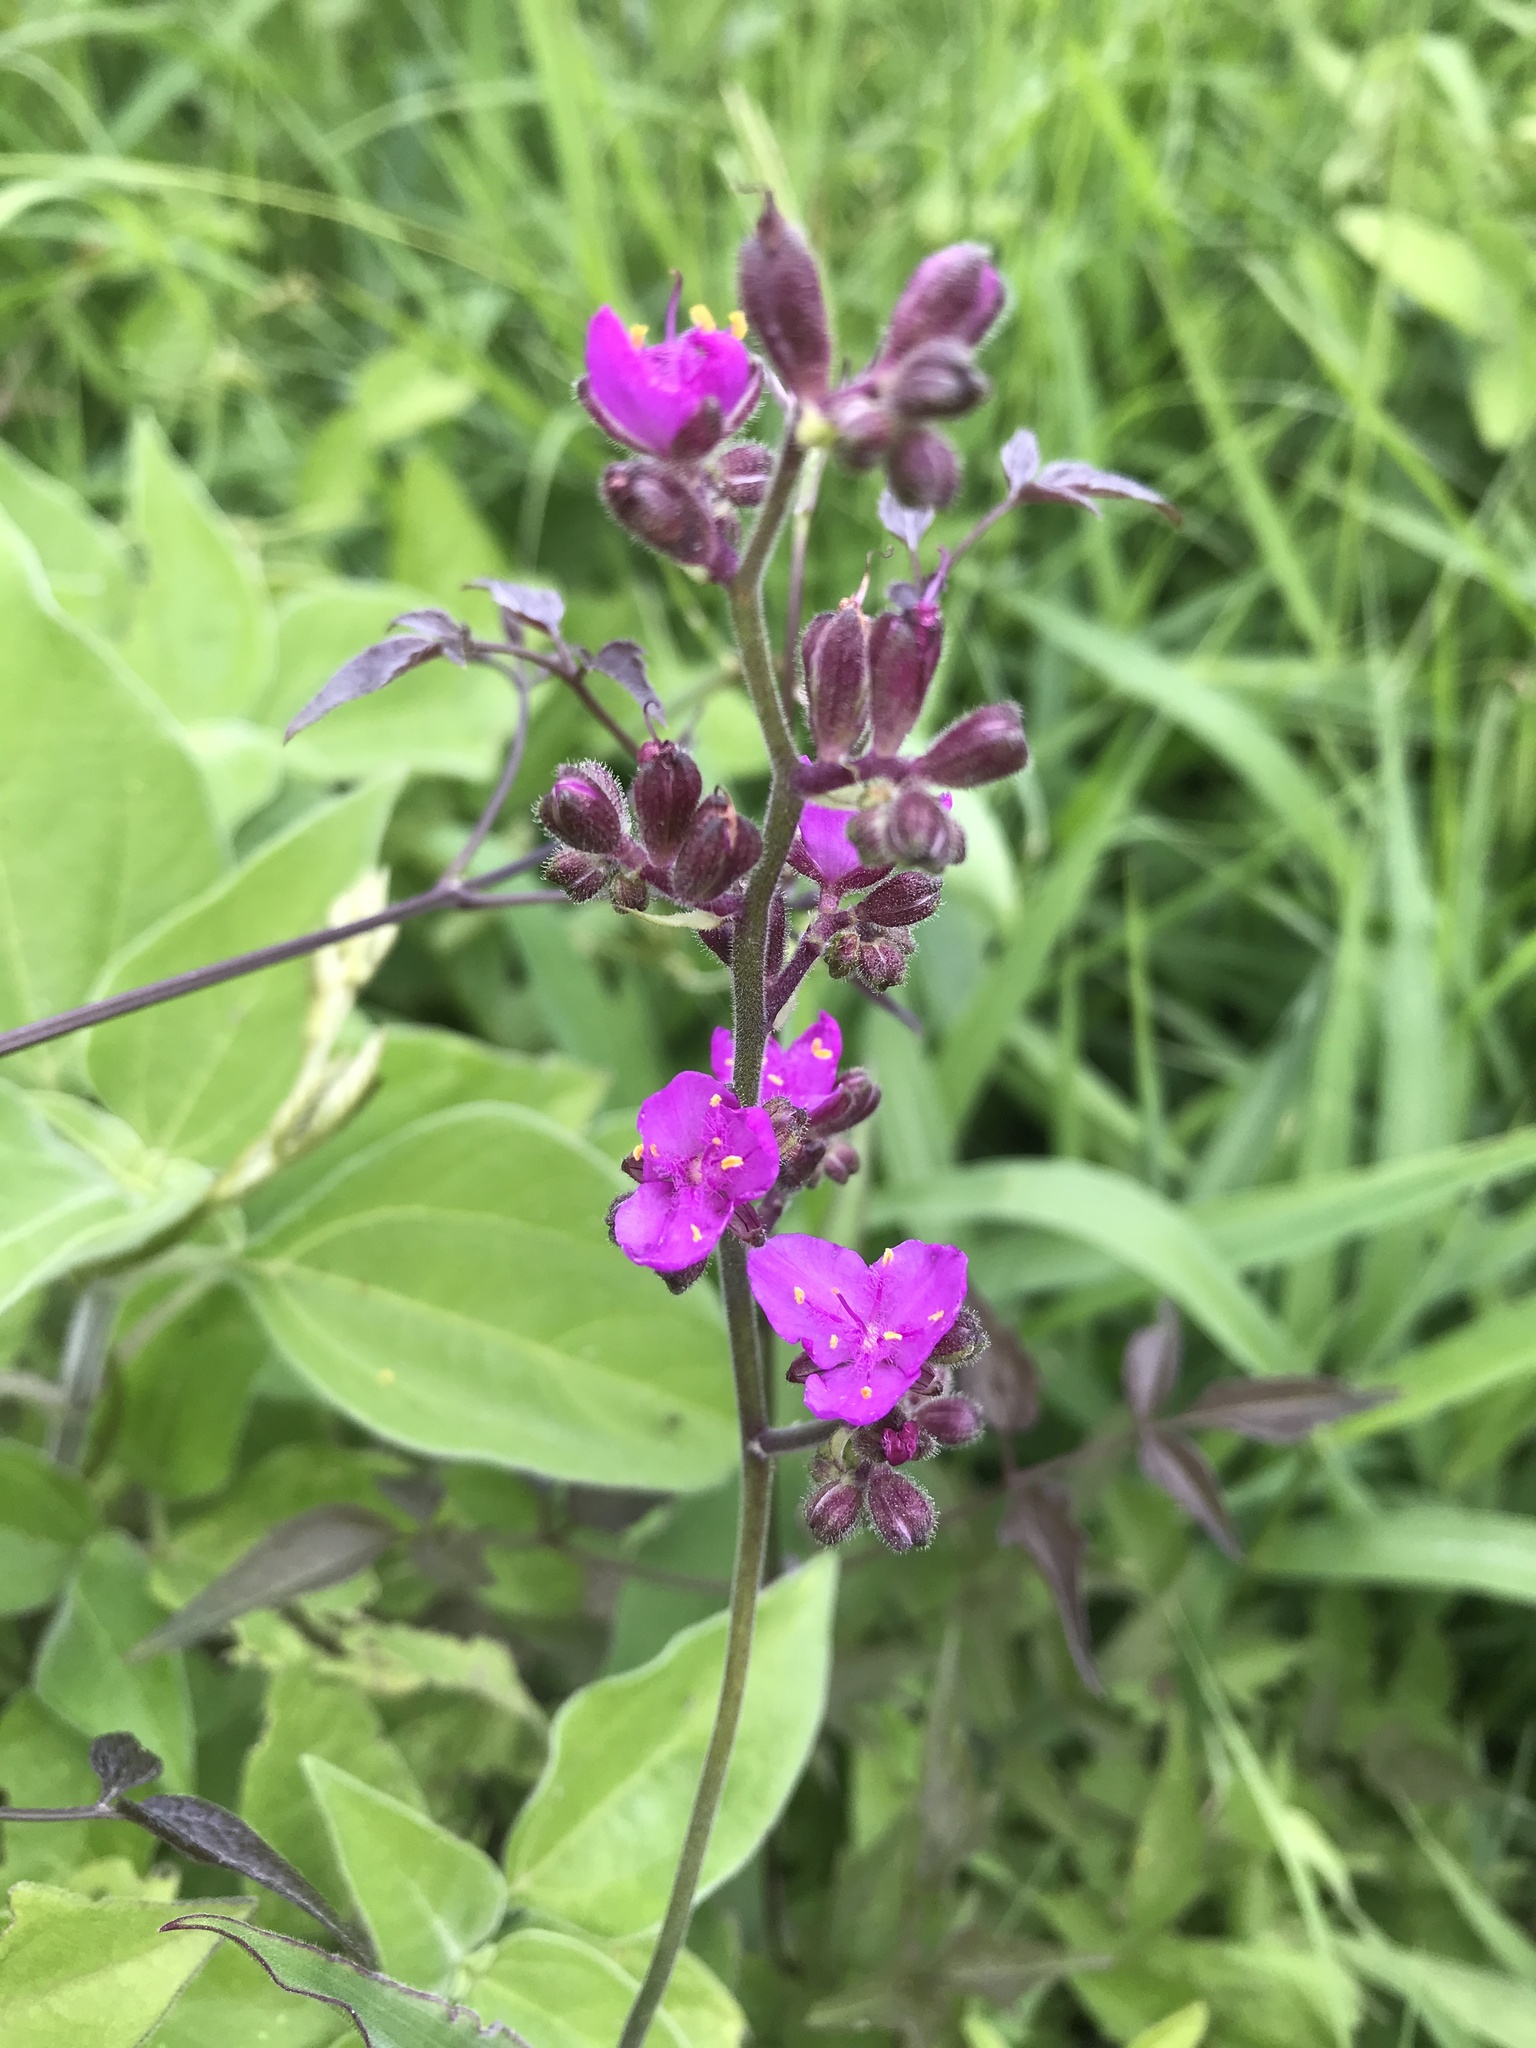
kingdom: Plantae
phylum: Tracheophyta
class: Liliopsida
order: Commelinales
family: Commelinaceae
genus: Thyrsanthemum
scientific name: Thyrsanthemum floribundum
